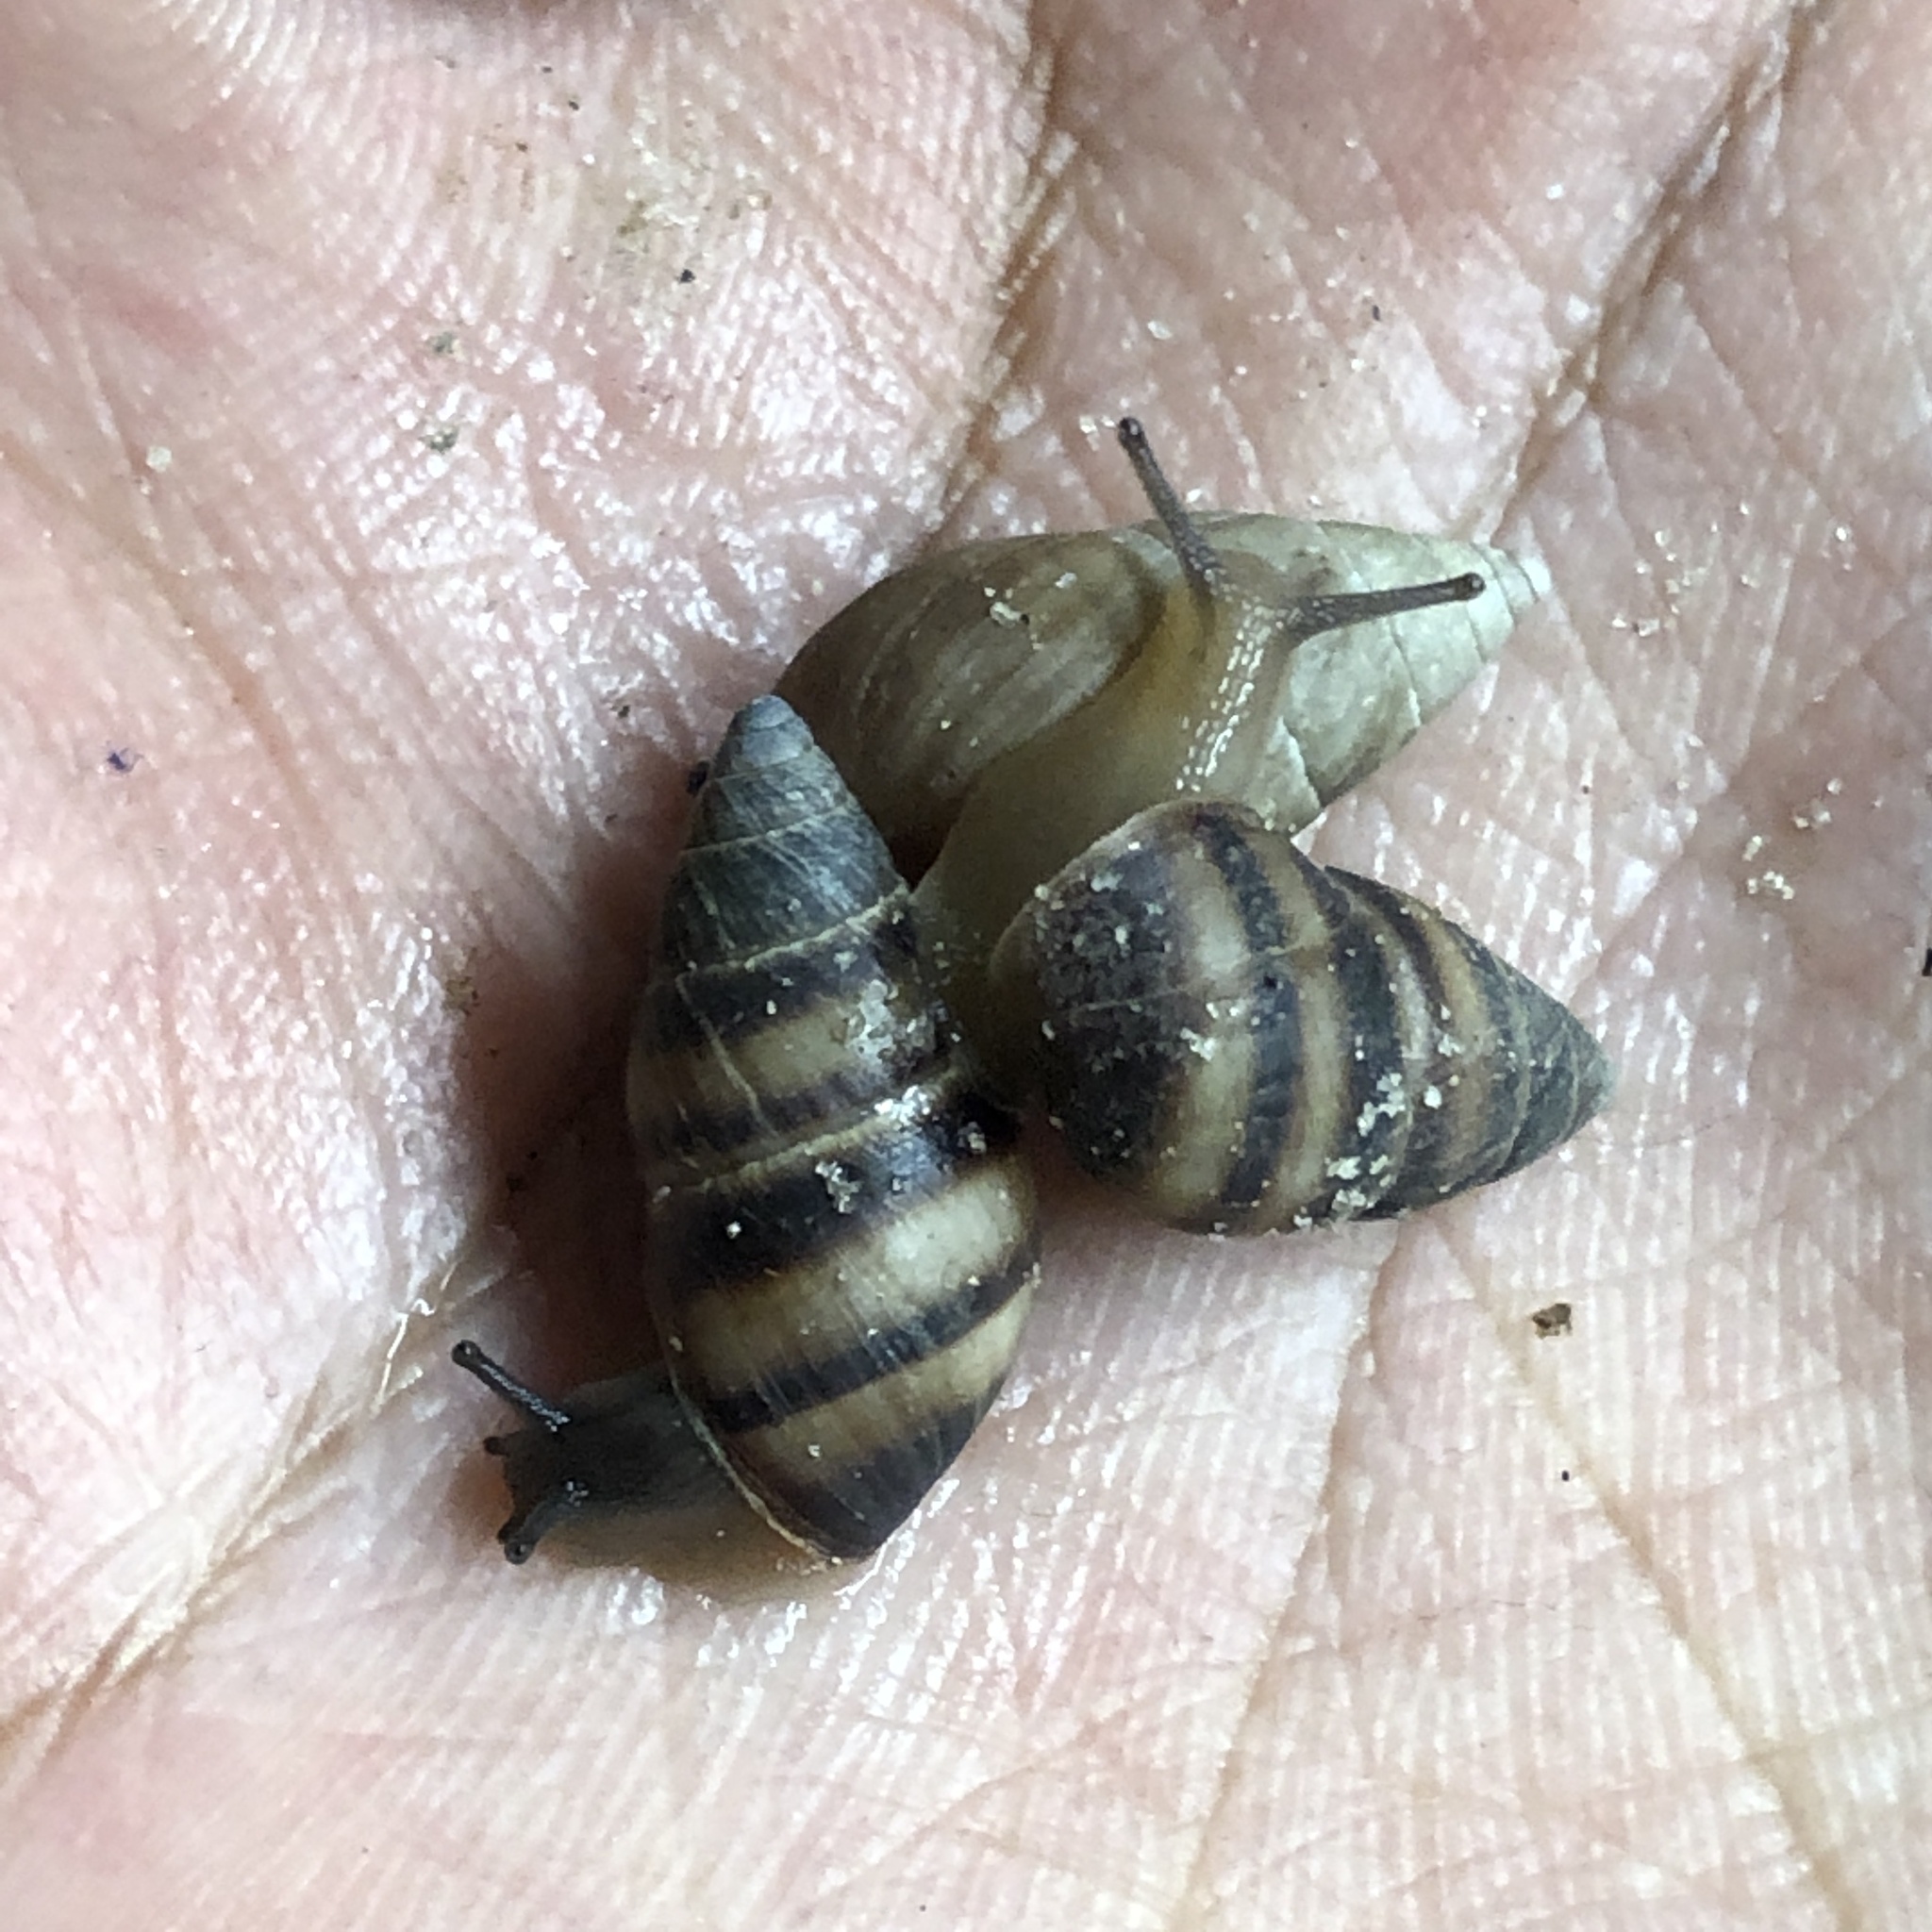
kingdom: Animalia
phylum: Mollusca
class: Gastropoda
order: Stylommatophora
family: Bulimulidae
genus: Bulimulus
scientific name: Bulimulus guadalupensis
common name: West indian bulimulus
